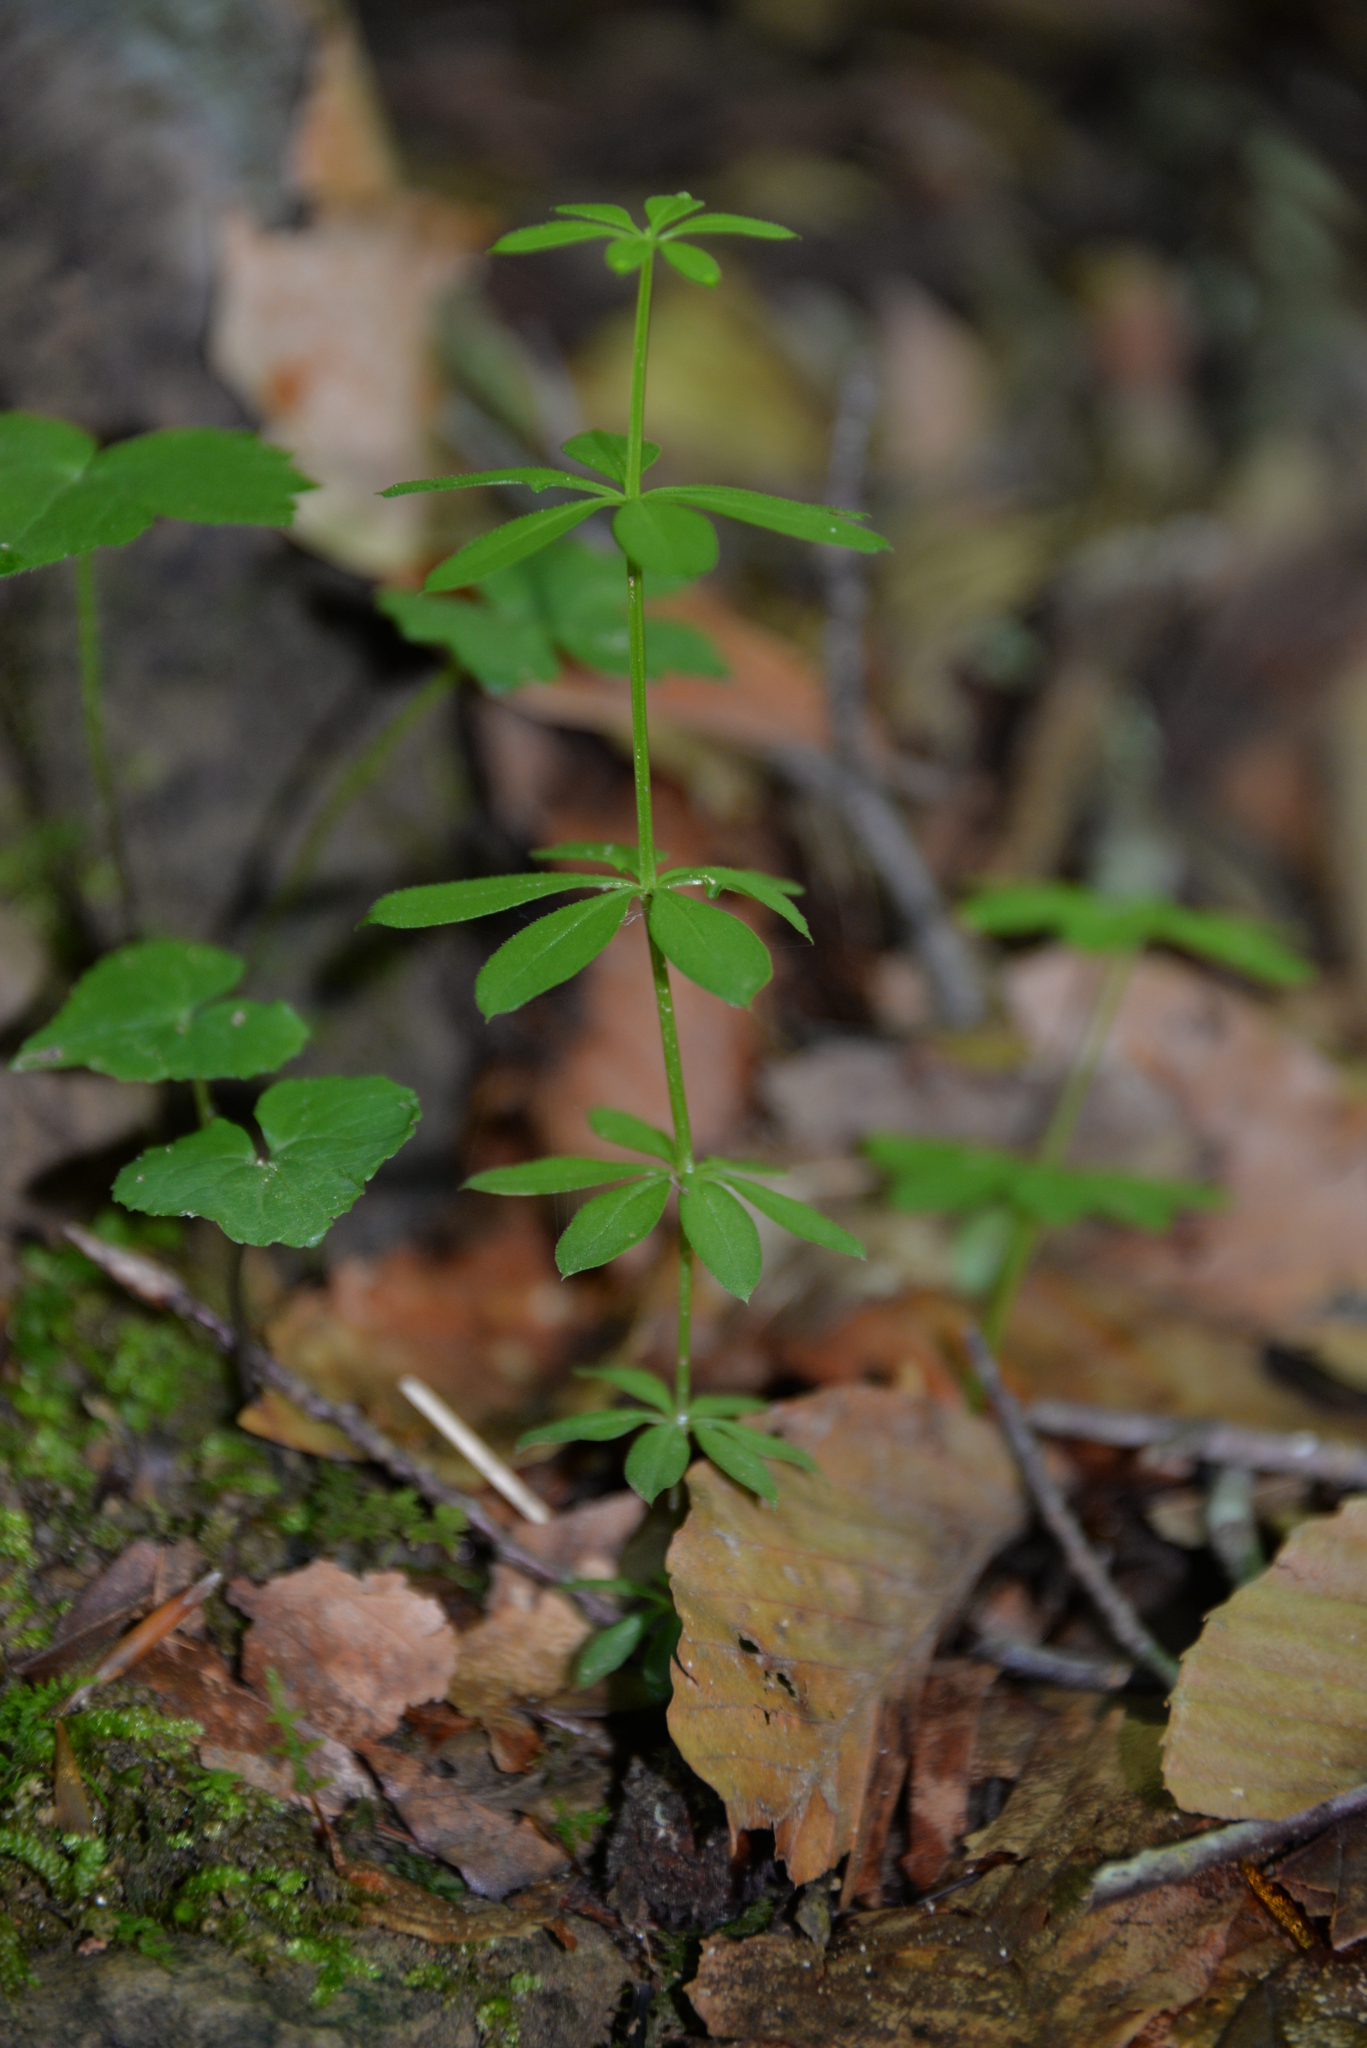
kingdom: Plantae
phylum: Tracheophyta
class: Magnoliopsida
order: Gentianales
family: Rubiaceae
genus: Galium
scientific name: Galium triflorum
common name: Fragrant bedstraw
